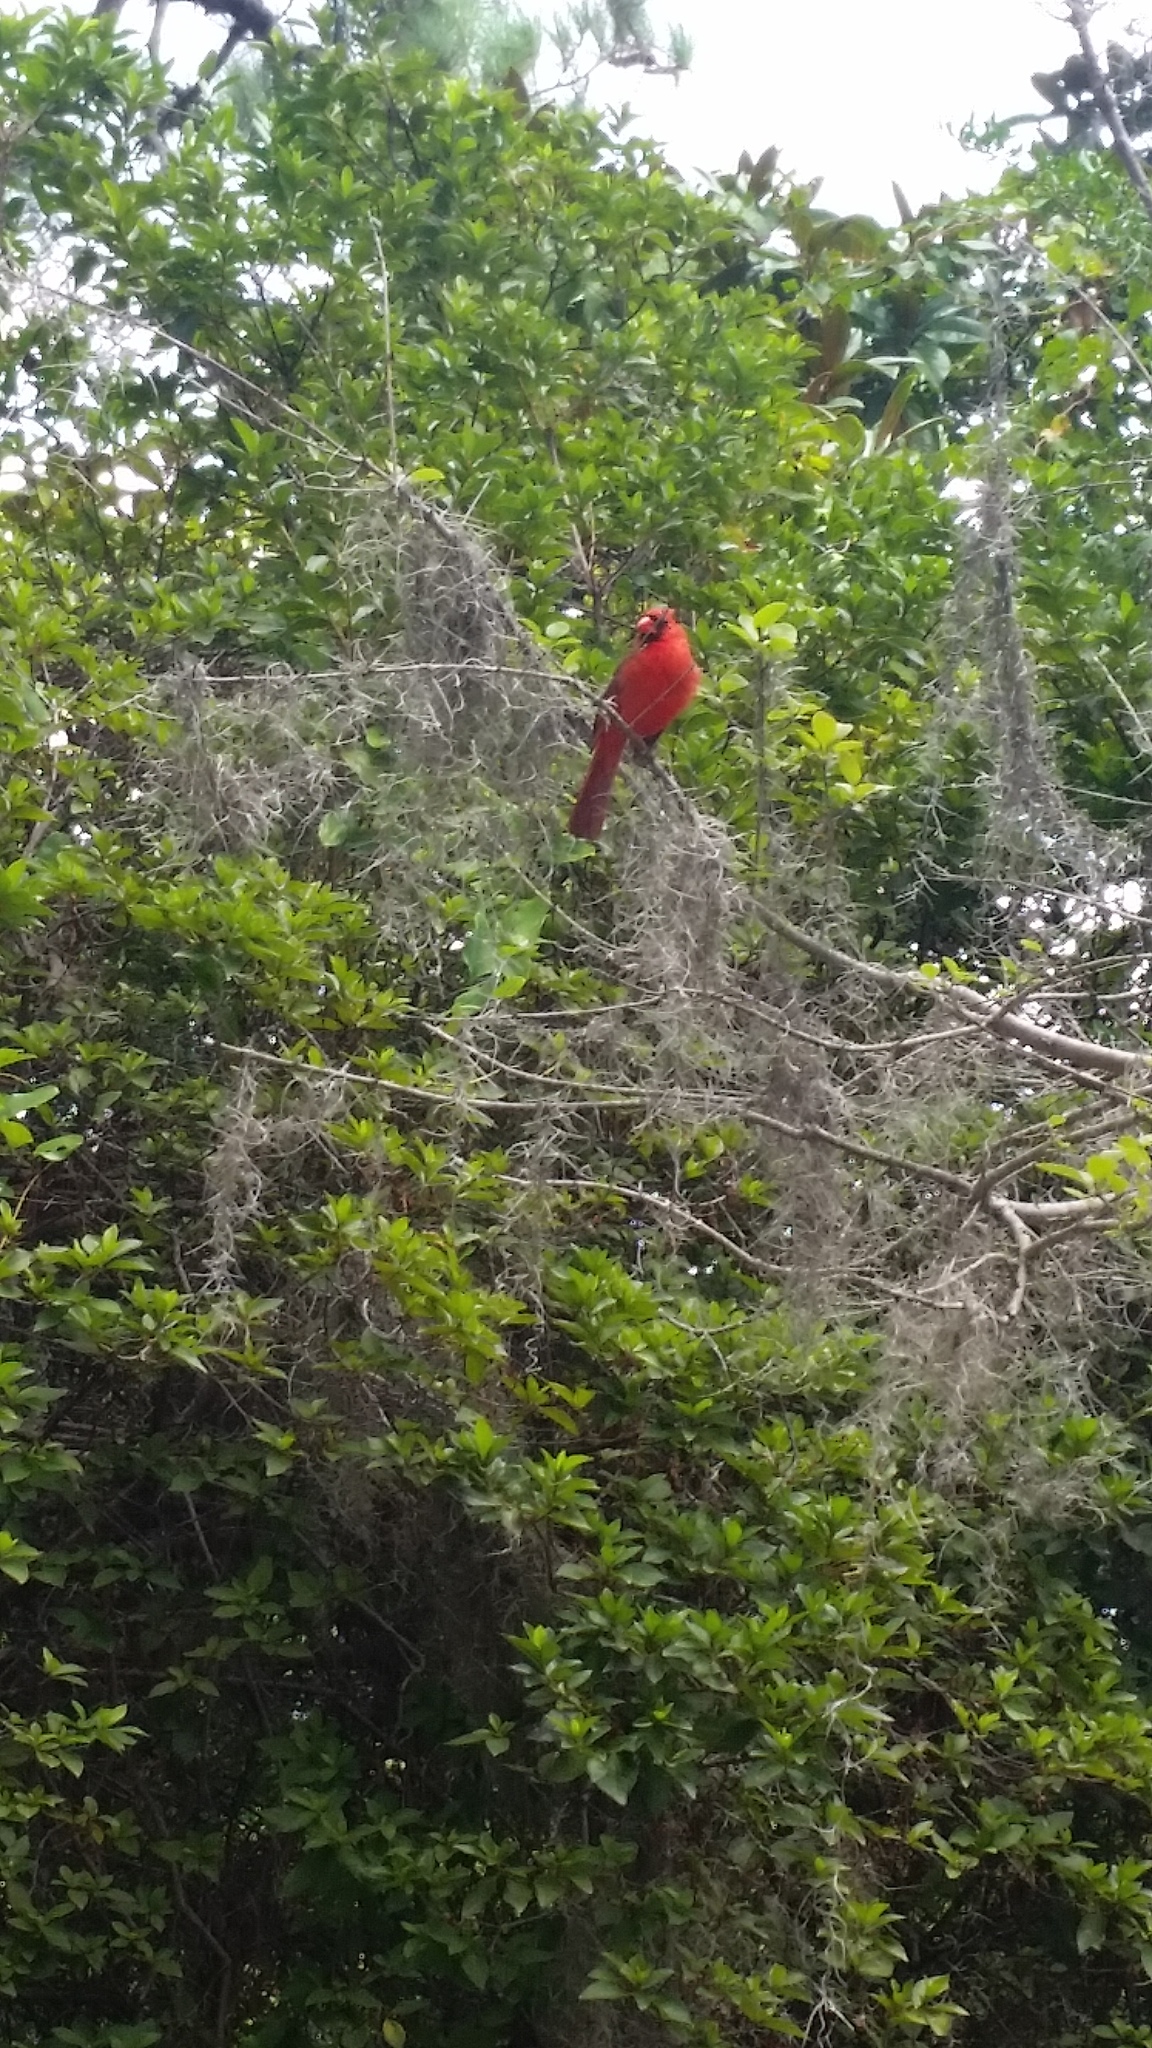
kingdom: Animalia
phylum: Chordata
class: Aves
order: Passeriformes
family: Cardinalidae
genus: Cardinalis
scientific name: Cardinalis cardinalis
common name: Northern cardinal
